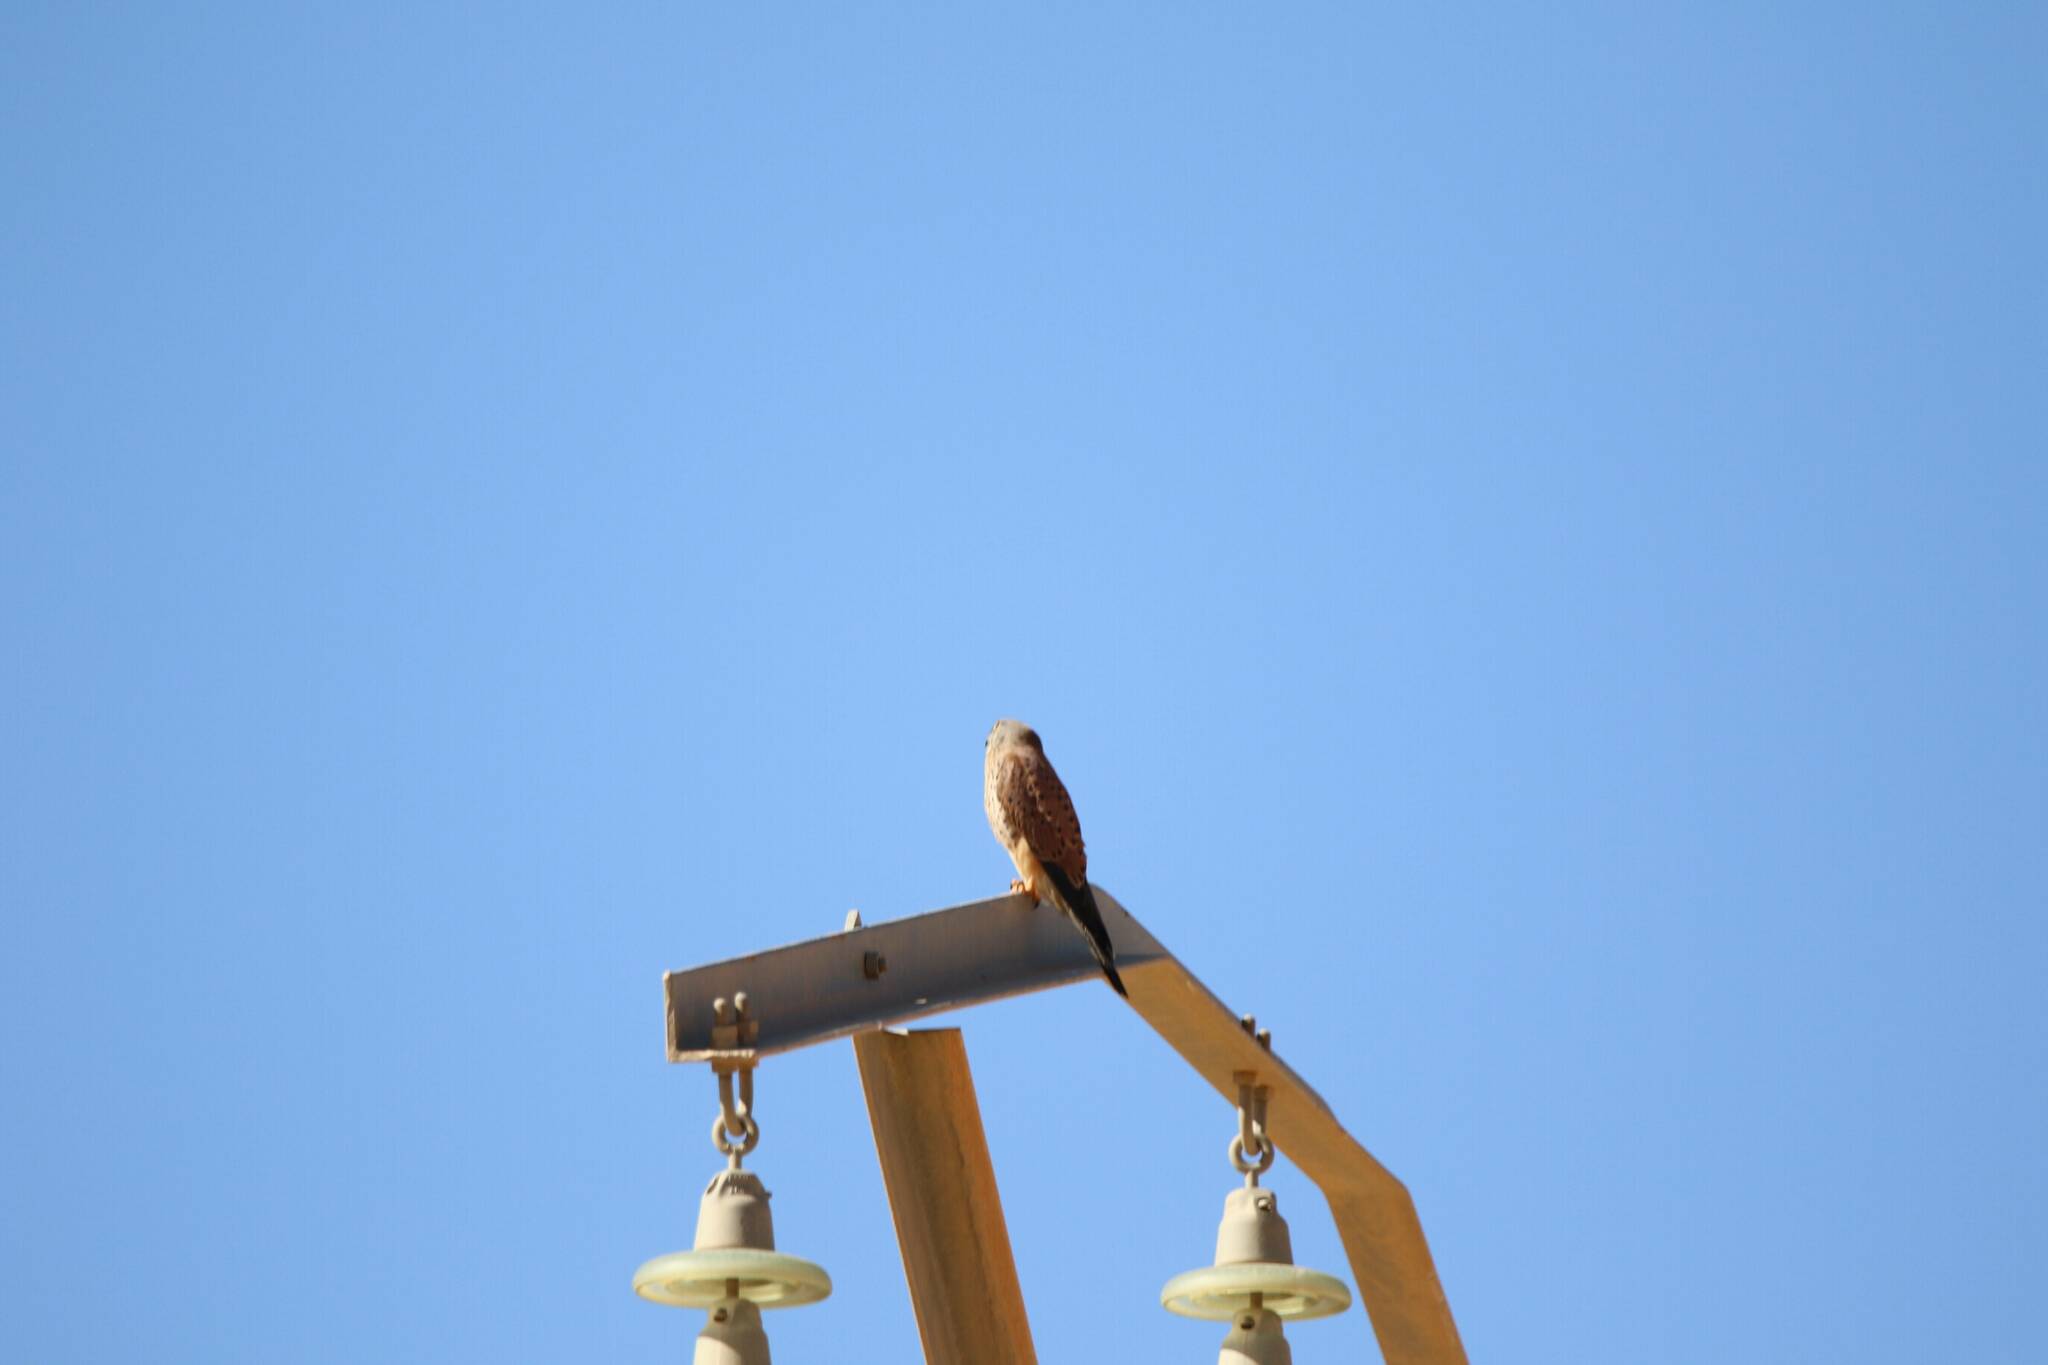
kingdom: Animalia
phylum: Chordata
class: Aves
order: Falconiformes
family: Falconidae
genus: Falco
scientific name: Falco tinnunculus
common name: Common kestrel
